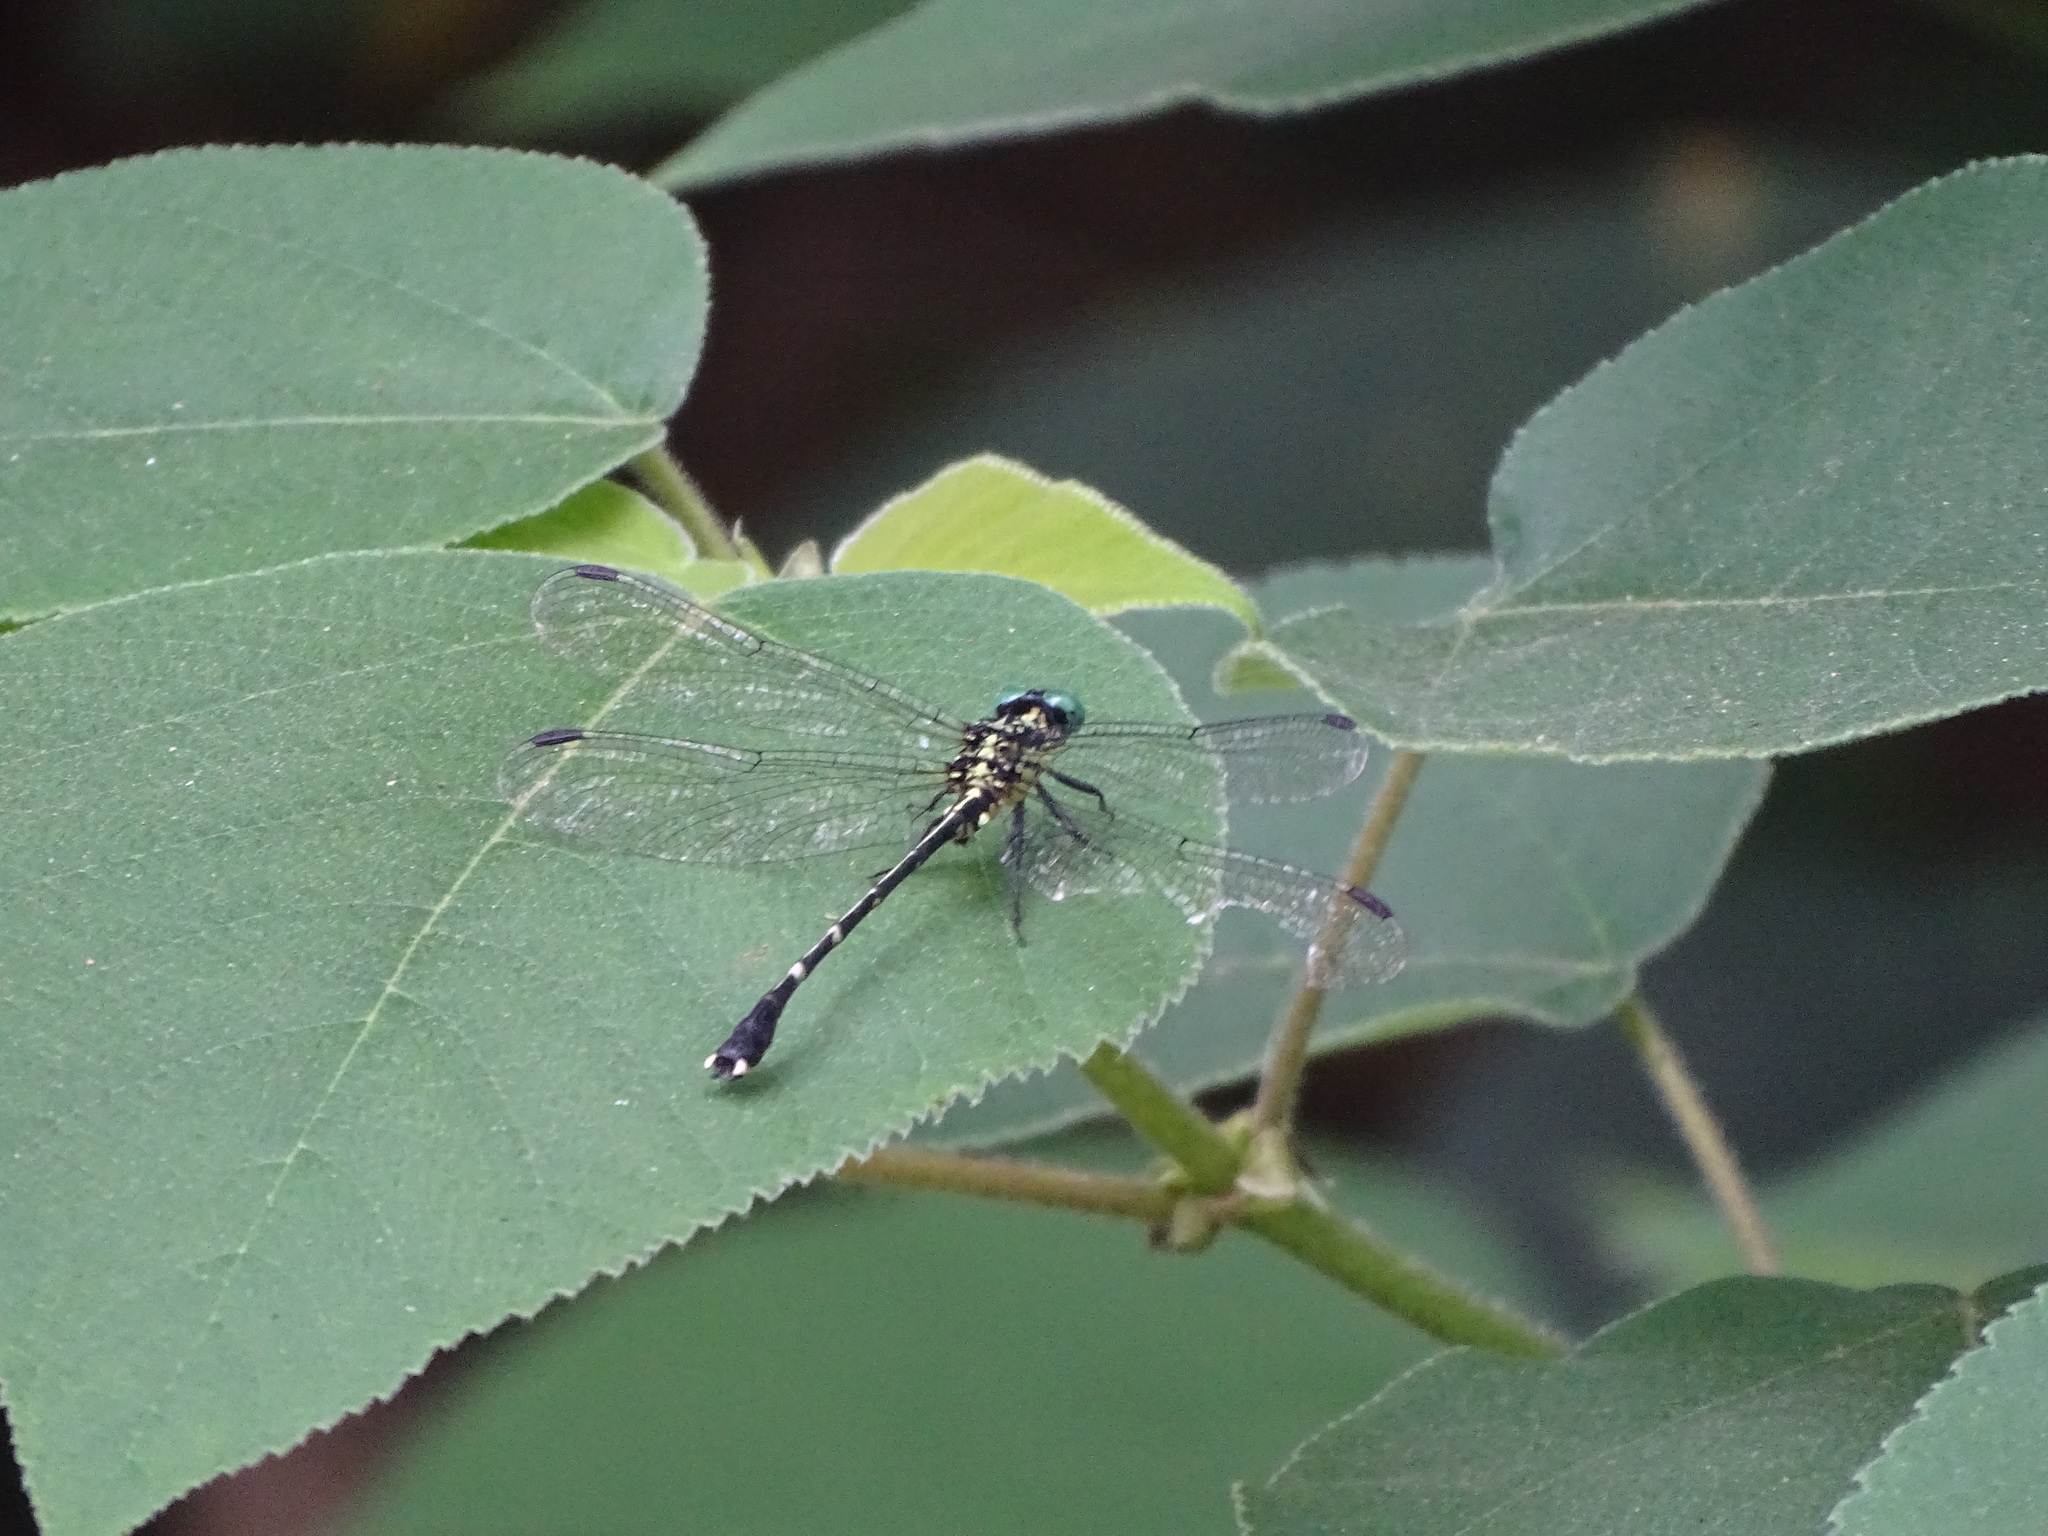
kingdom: Animalia
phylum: Arthropoda
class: Insecta
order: Odonata
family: Gomphidae
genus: Leptogomphus
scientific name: Leptogomphus sauteri
